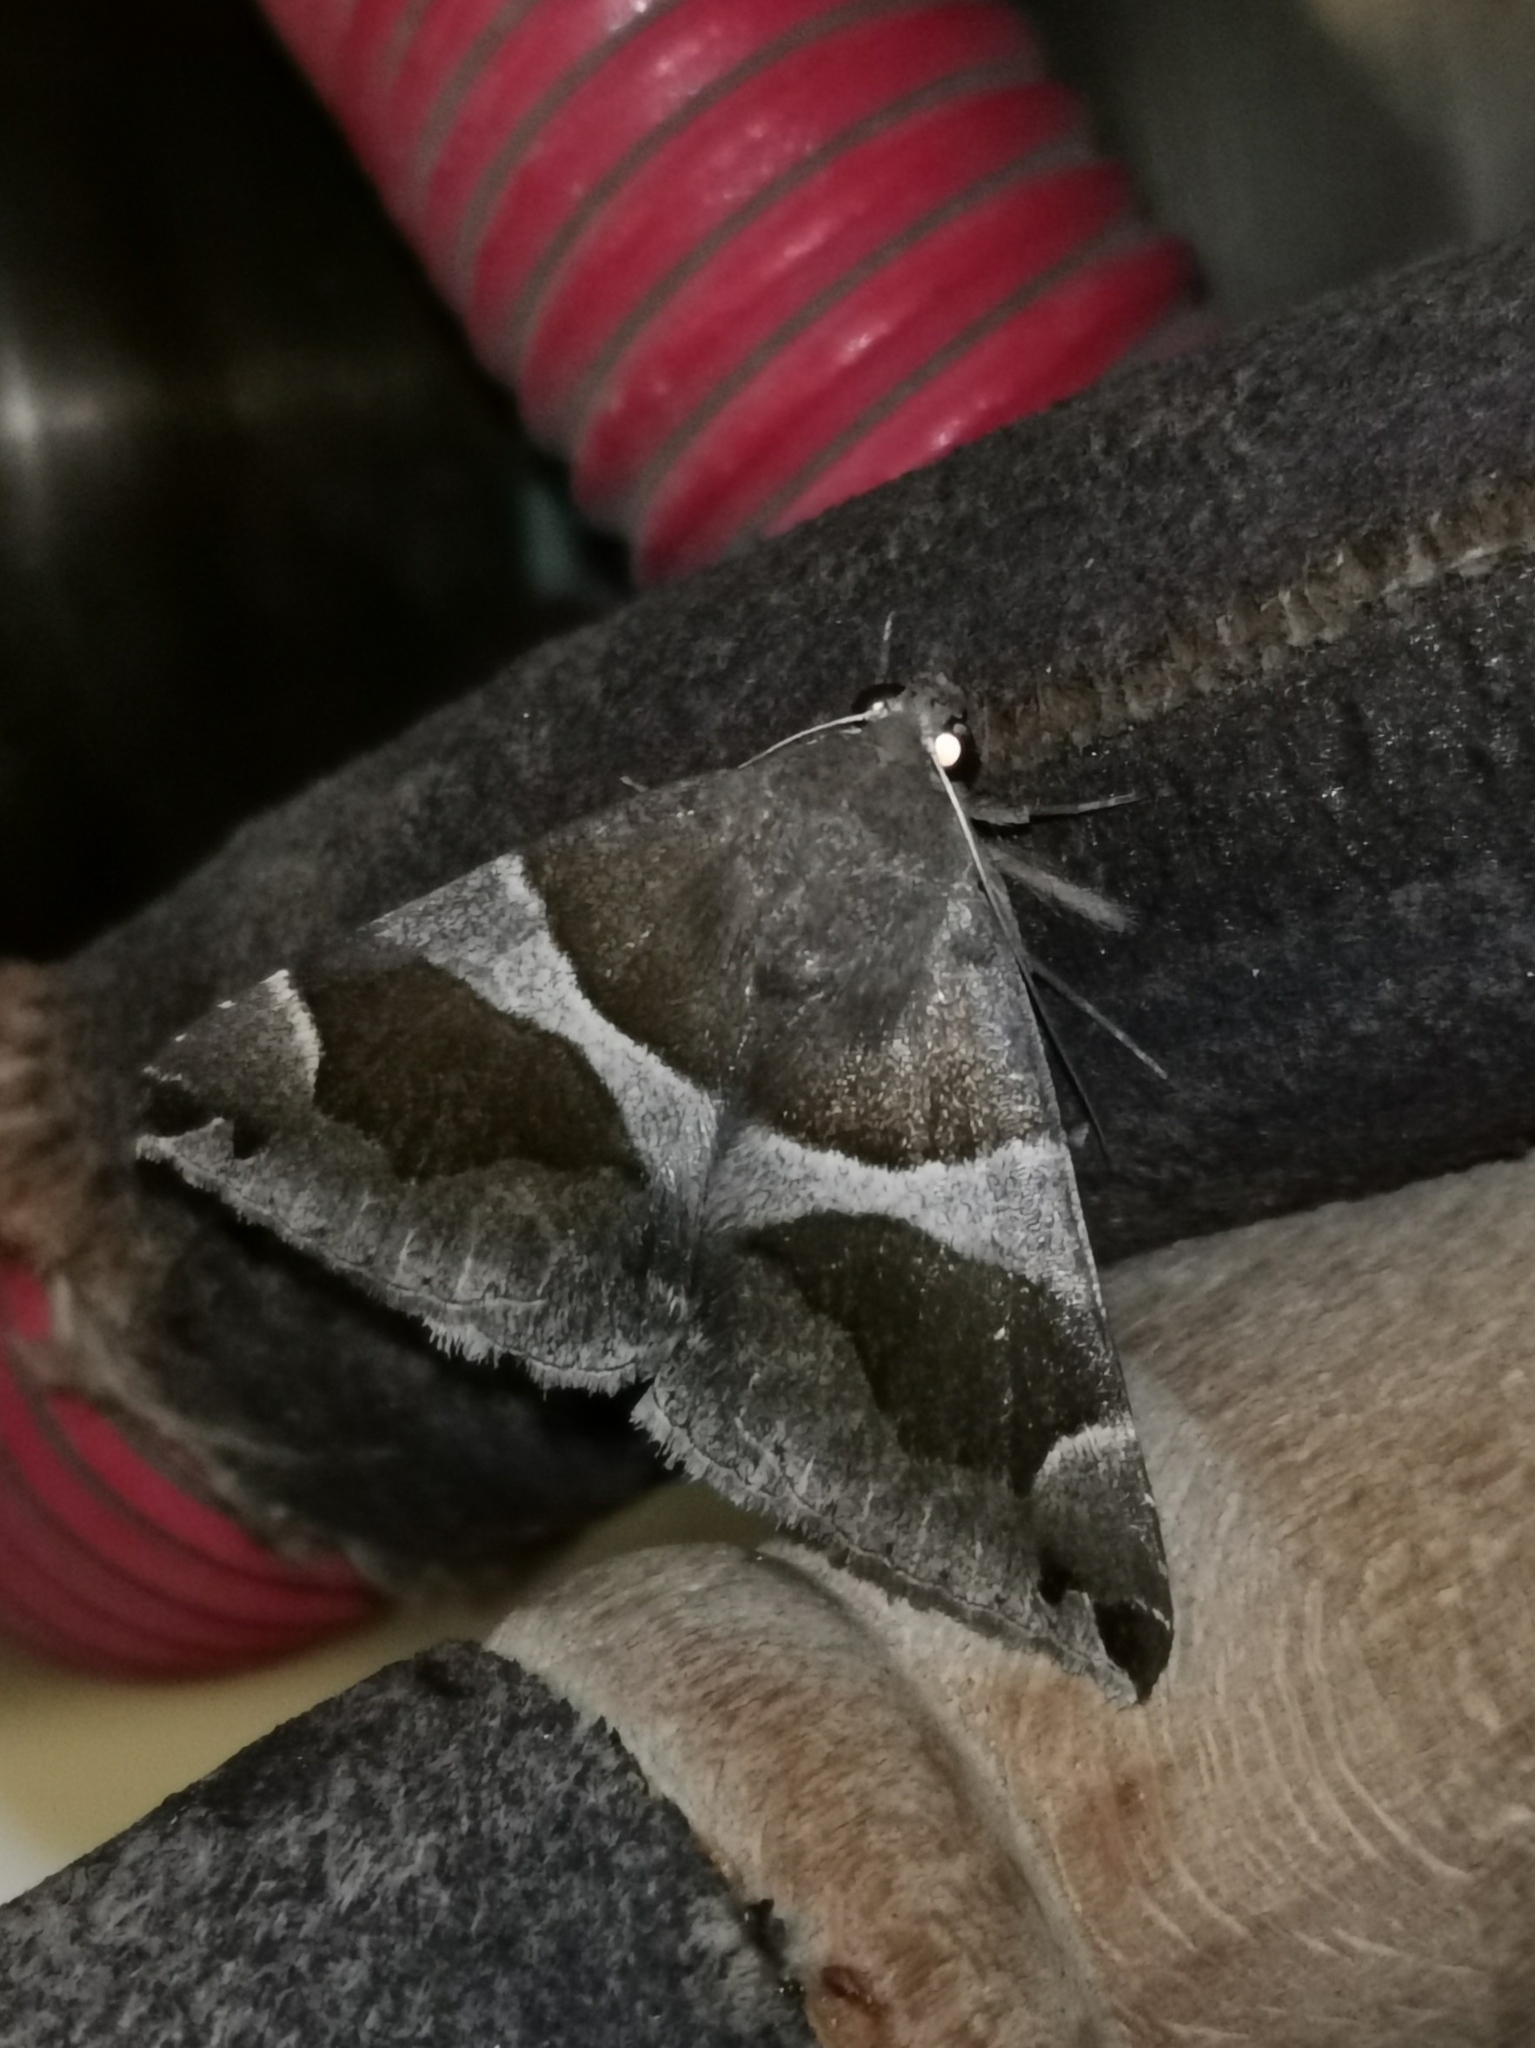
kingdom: Animalia
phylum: Arthropoda
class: Insecta
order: Lepidoptera
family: Erebidae
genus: Dysgonia
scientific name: Dysgonia algira
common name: Passenger
